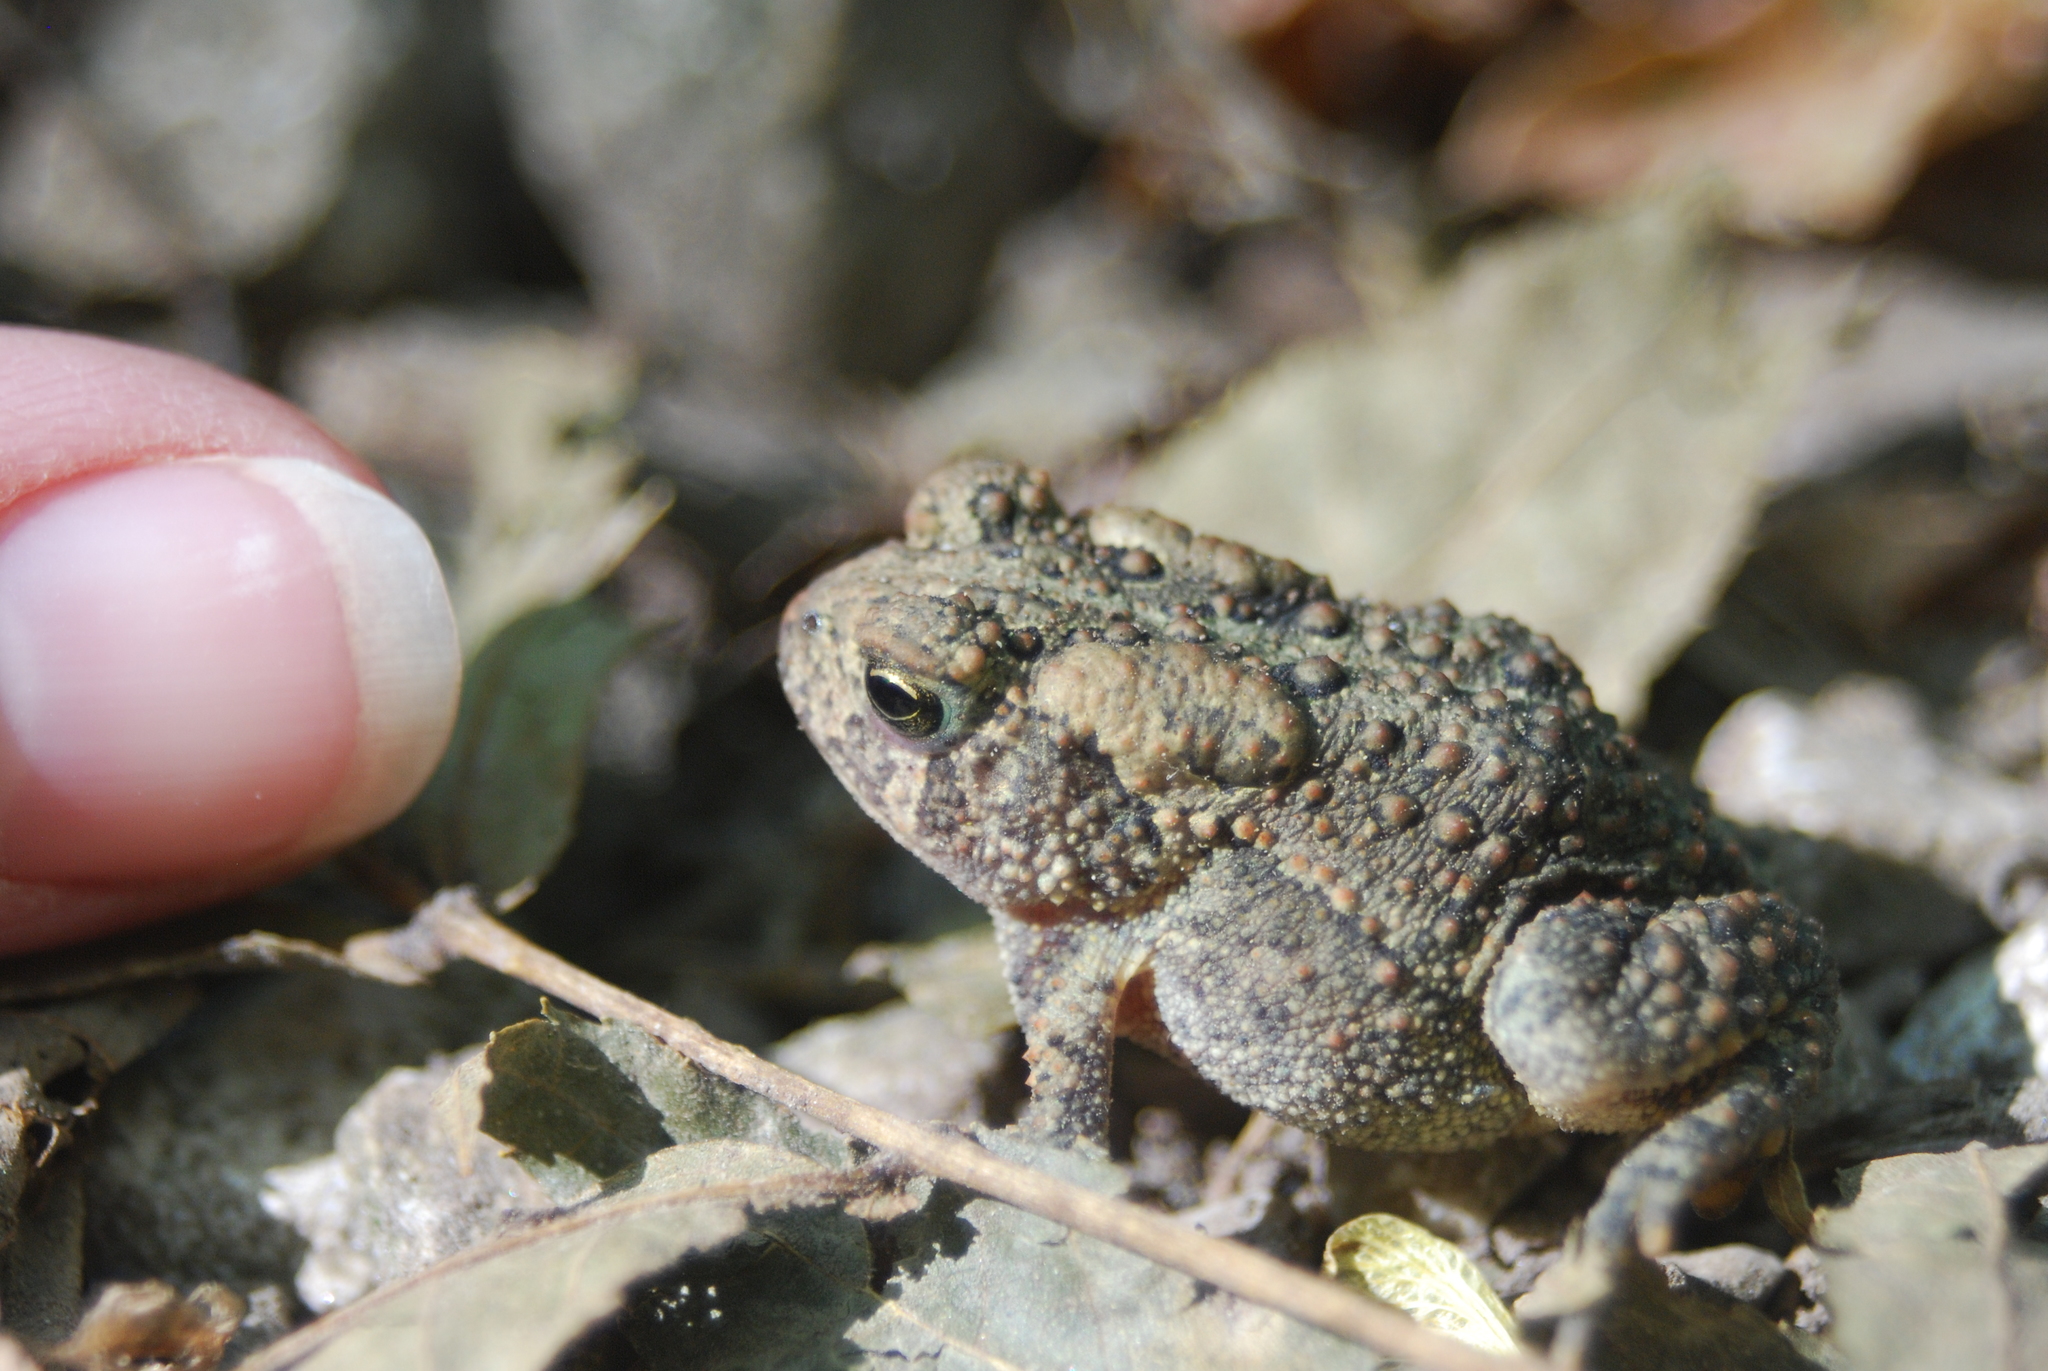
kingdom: Animalia
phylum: Chordata
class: Amphibia
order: Anura
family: Bufonidae
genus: Anaxyrus
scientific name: Anaxyrus americanus
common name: American toad
